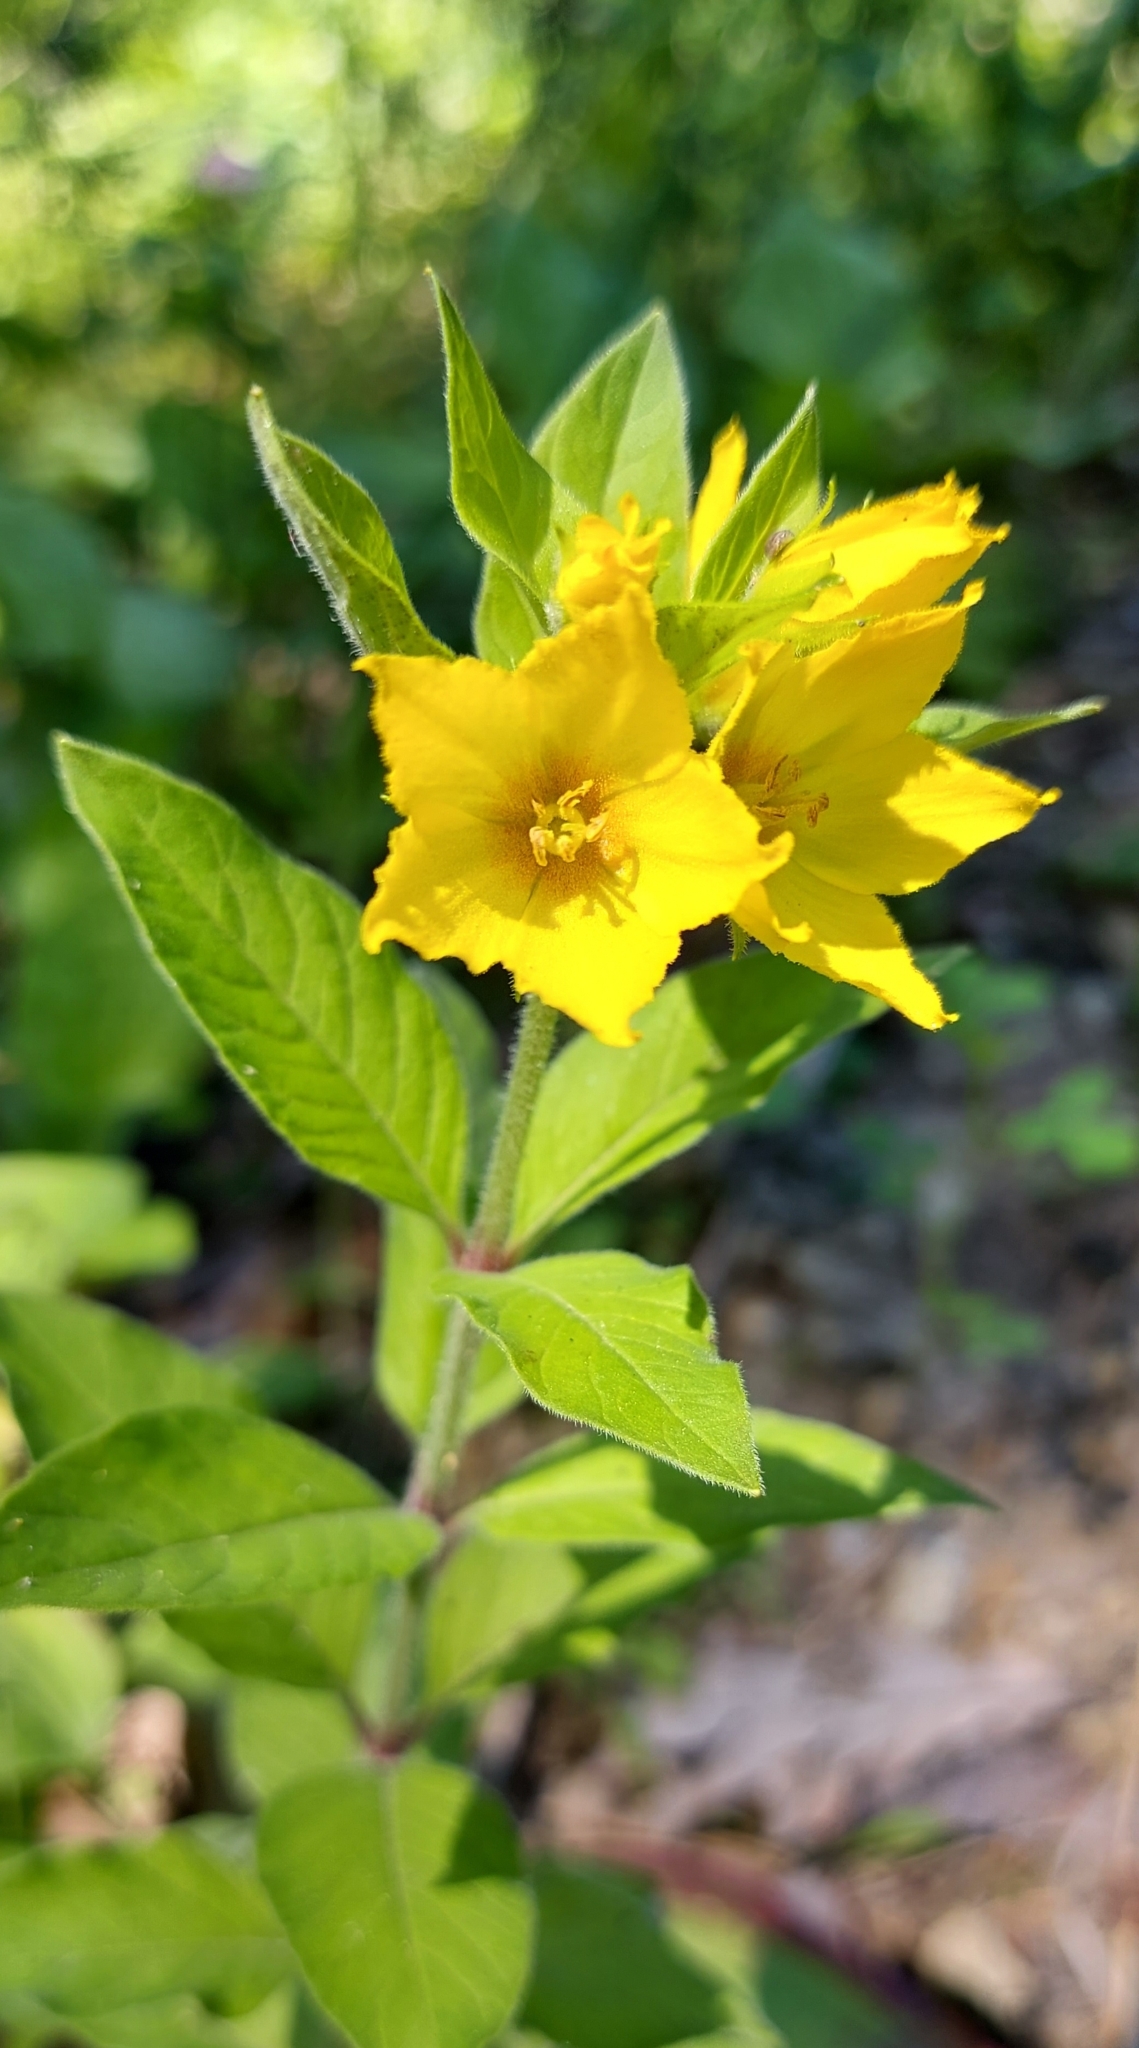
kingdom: Plantae
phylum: Tracheophyta
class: Magnoliopsida
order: Ericales
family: Primulaceae
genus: Lysimachia
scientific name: Lysimachia punctata
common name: Dotted loosestrife
